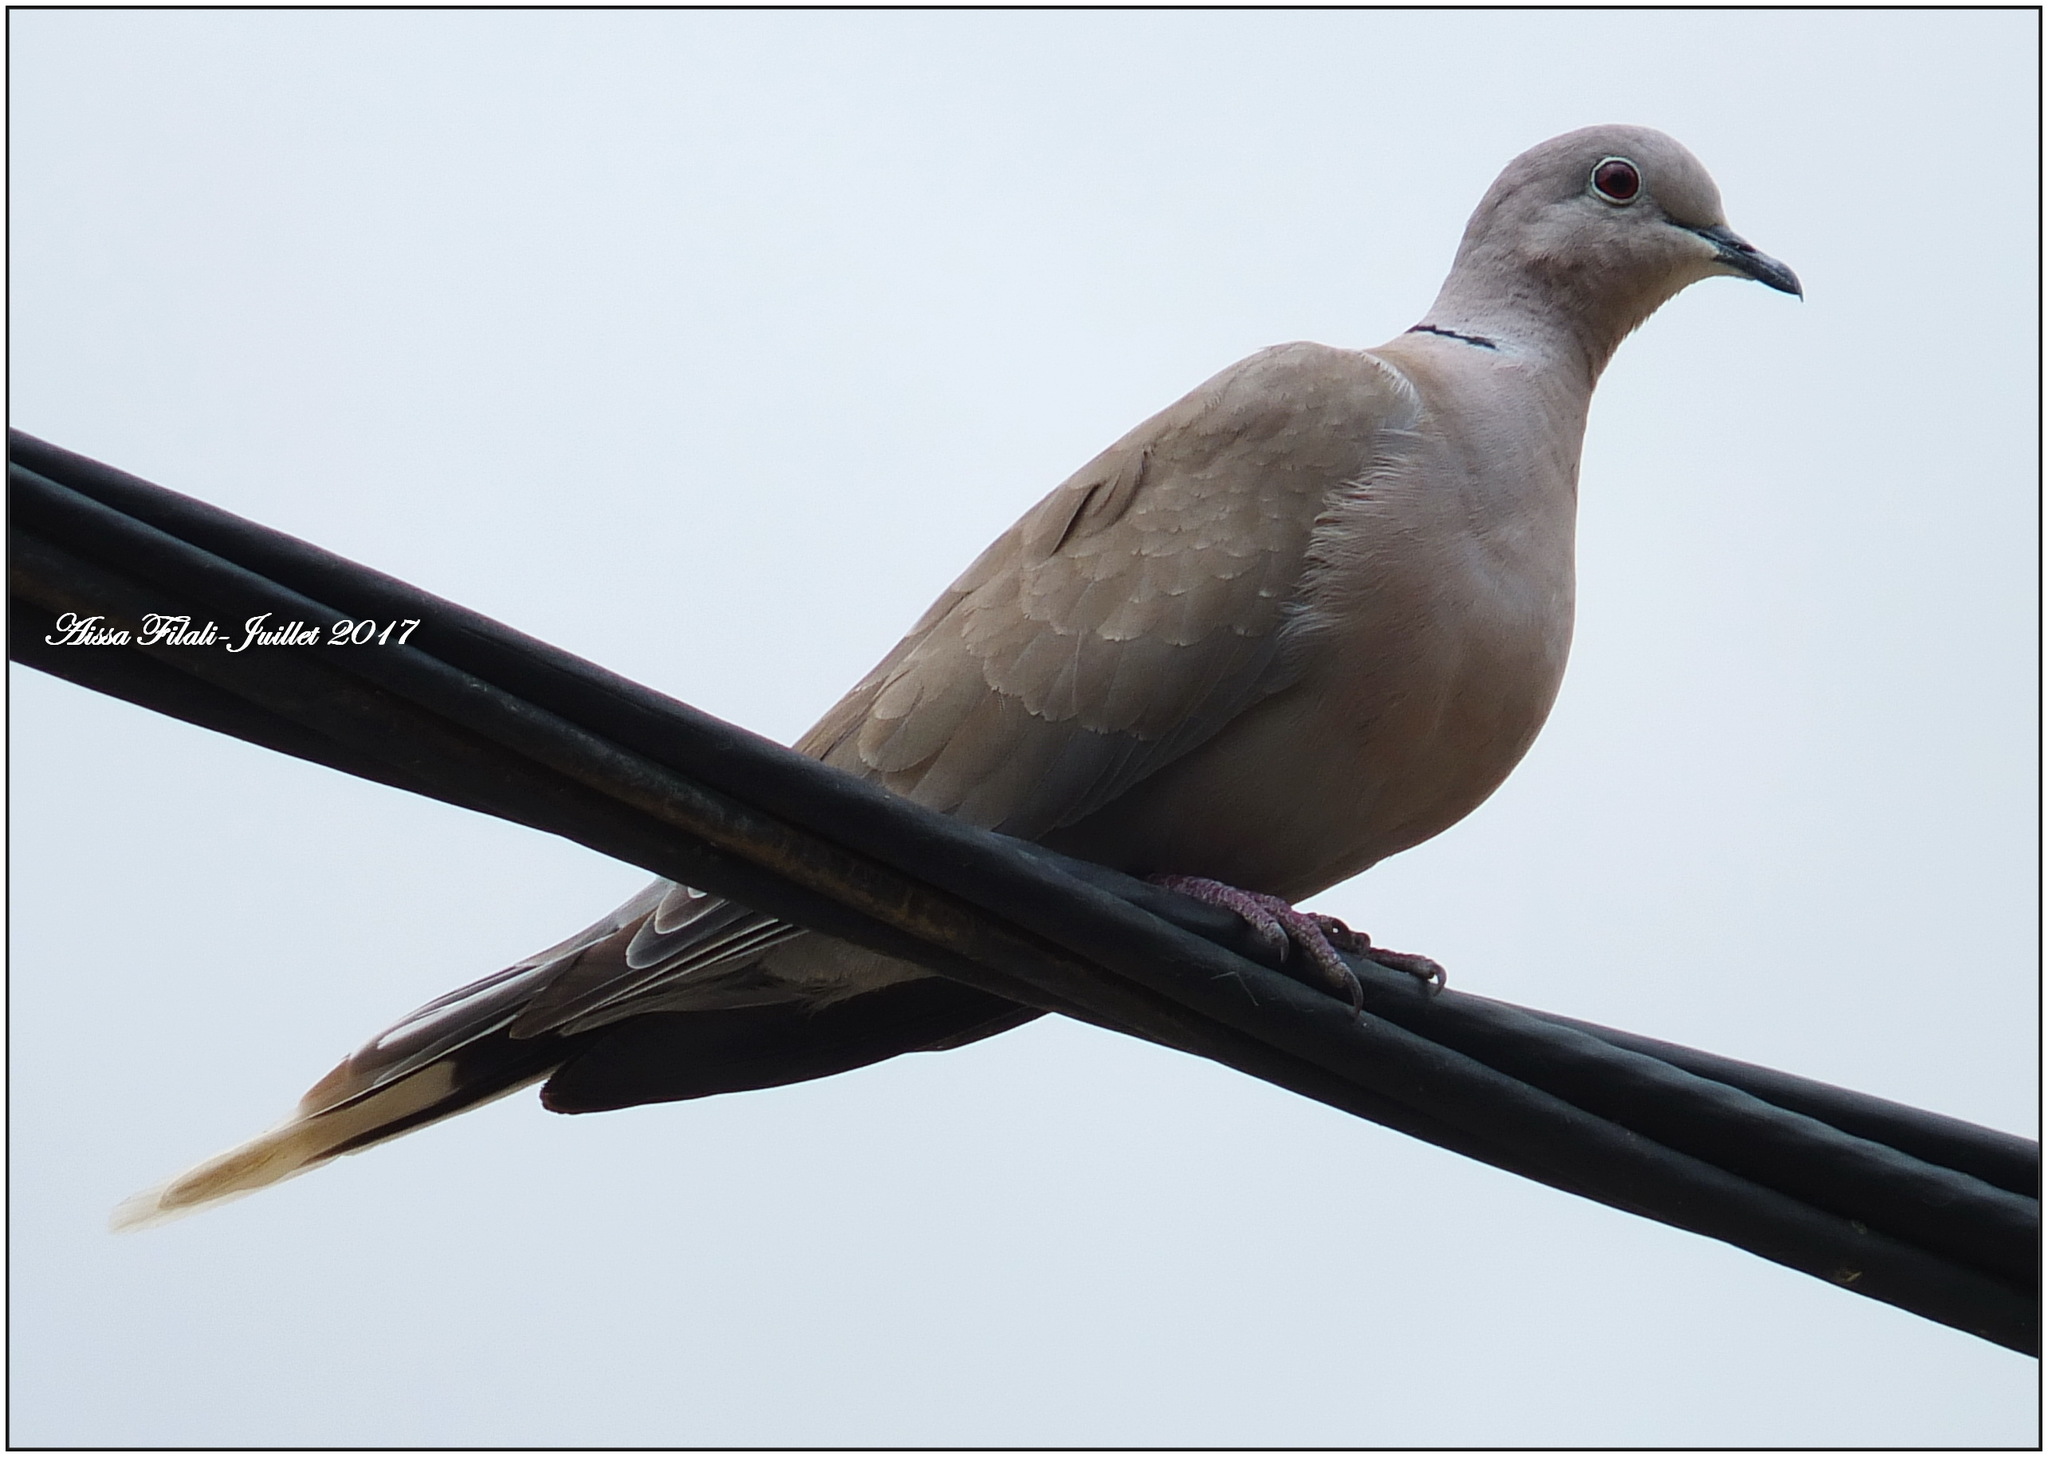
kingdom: Animalia
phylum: Chordata
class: Aves
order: Columbiformes
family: Columbidae
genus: Streptopelia
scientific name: Streptopelia decaocto
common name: Eurasian collared dove
